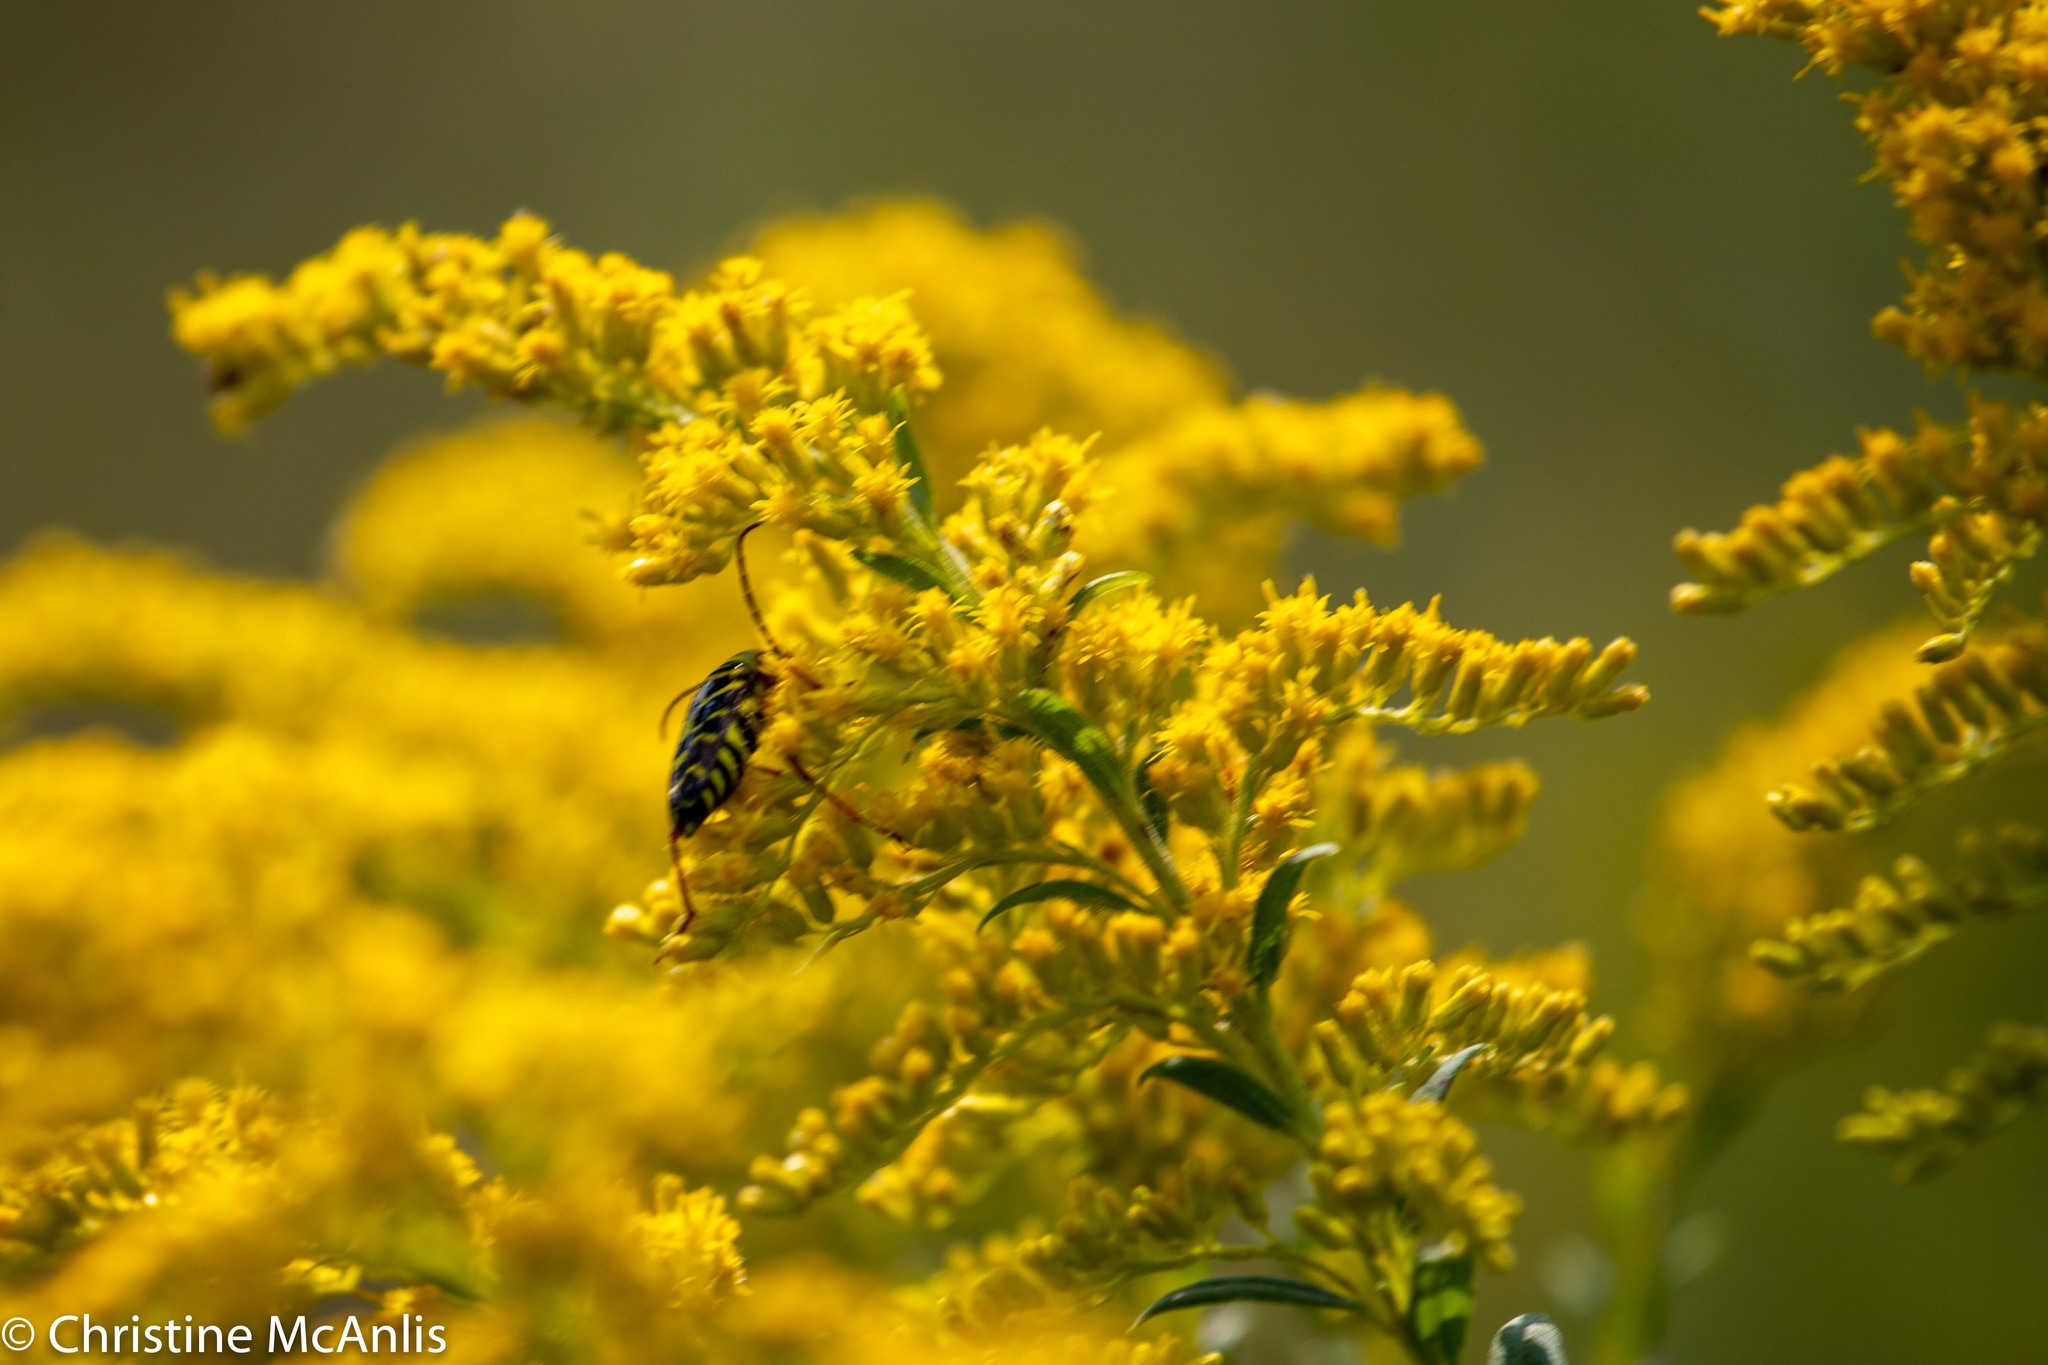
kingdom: Animalia
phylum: Arthropoda
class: Insecta
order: Coleoptera
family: Cerambycidae
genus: Megacyllene
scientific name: Megacyllene robiniae
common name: Locust borer
